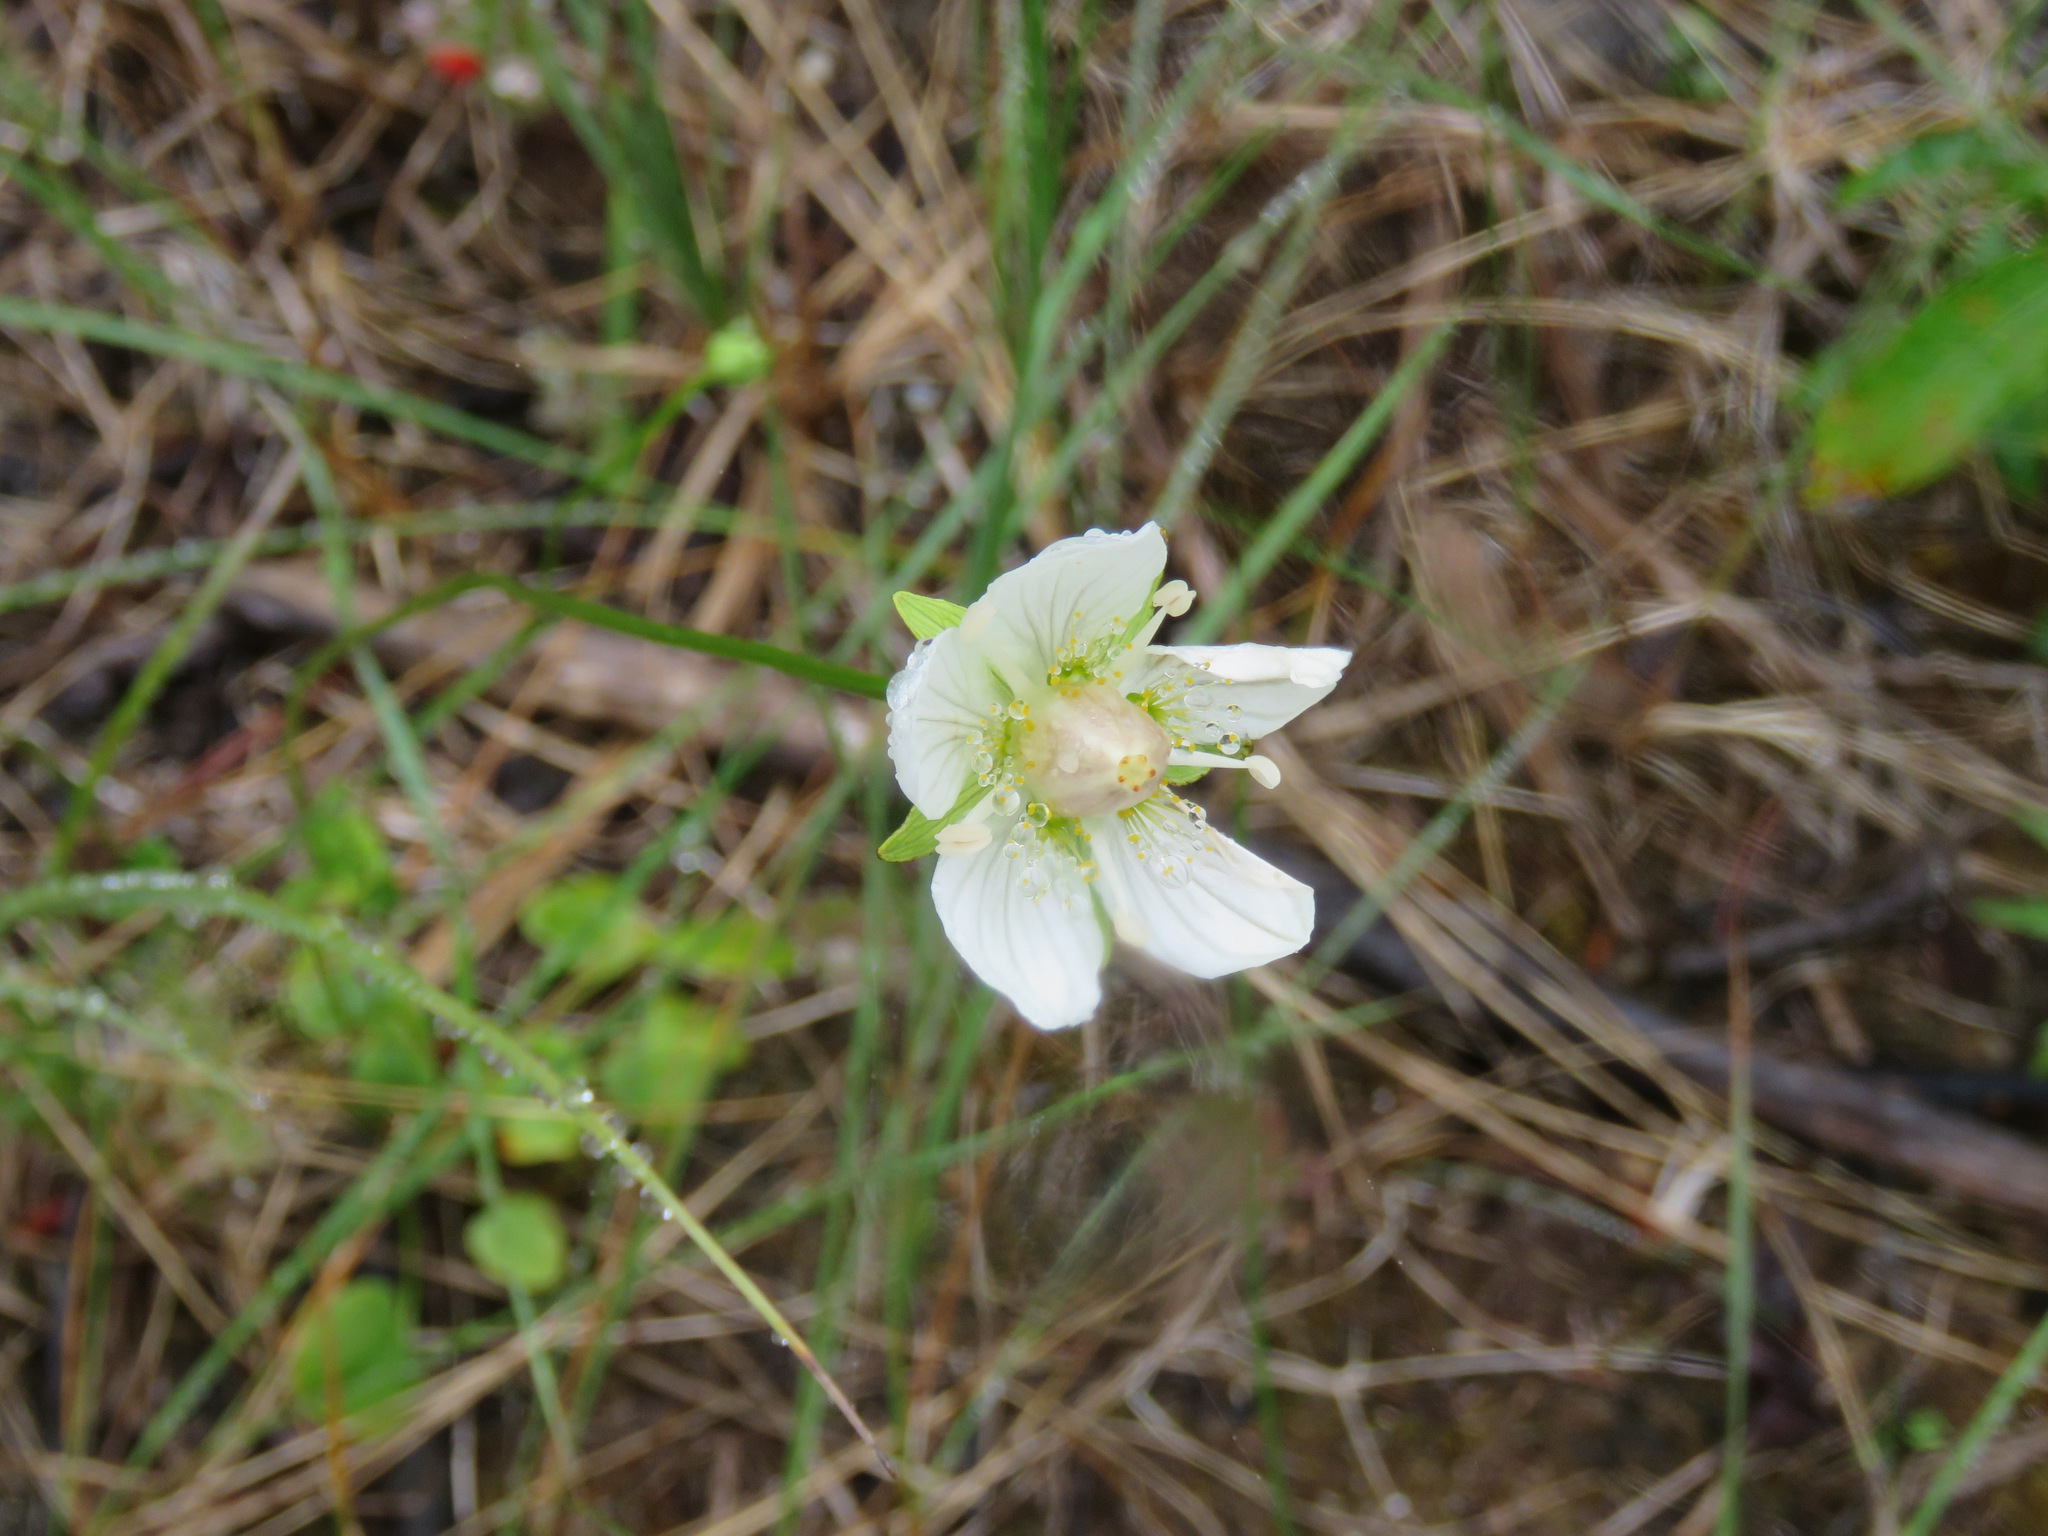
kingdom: Plantae
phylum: Tracheophyta
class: Magnoliopsida
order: Celastrales
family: Parnassiaceae
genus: Parnassia
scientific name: Parnassia palustris
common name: Grass-of-parnassus
